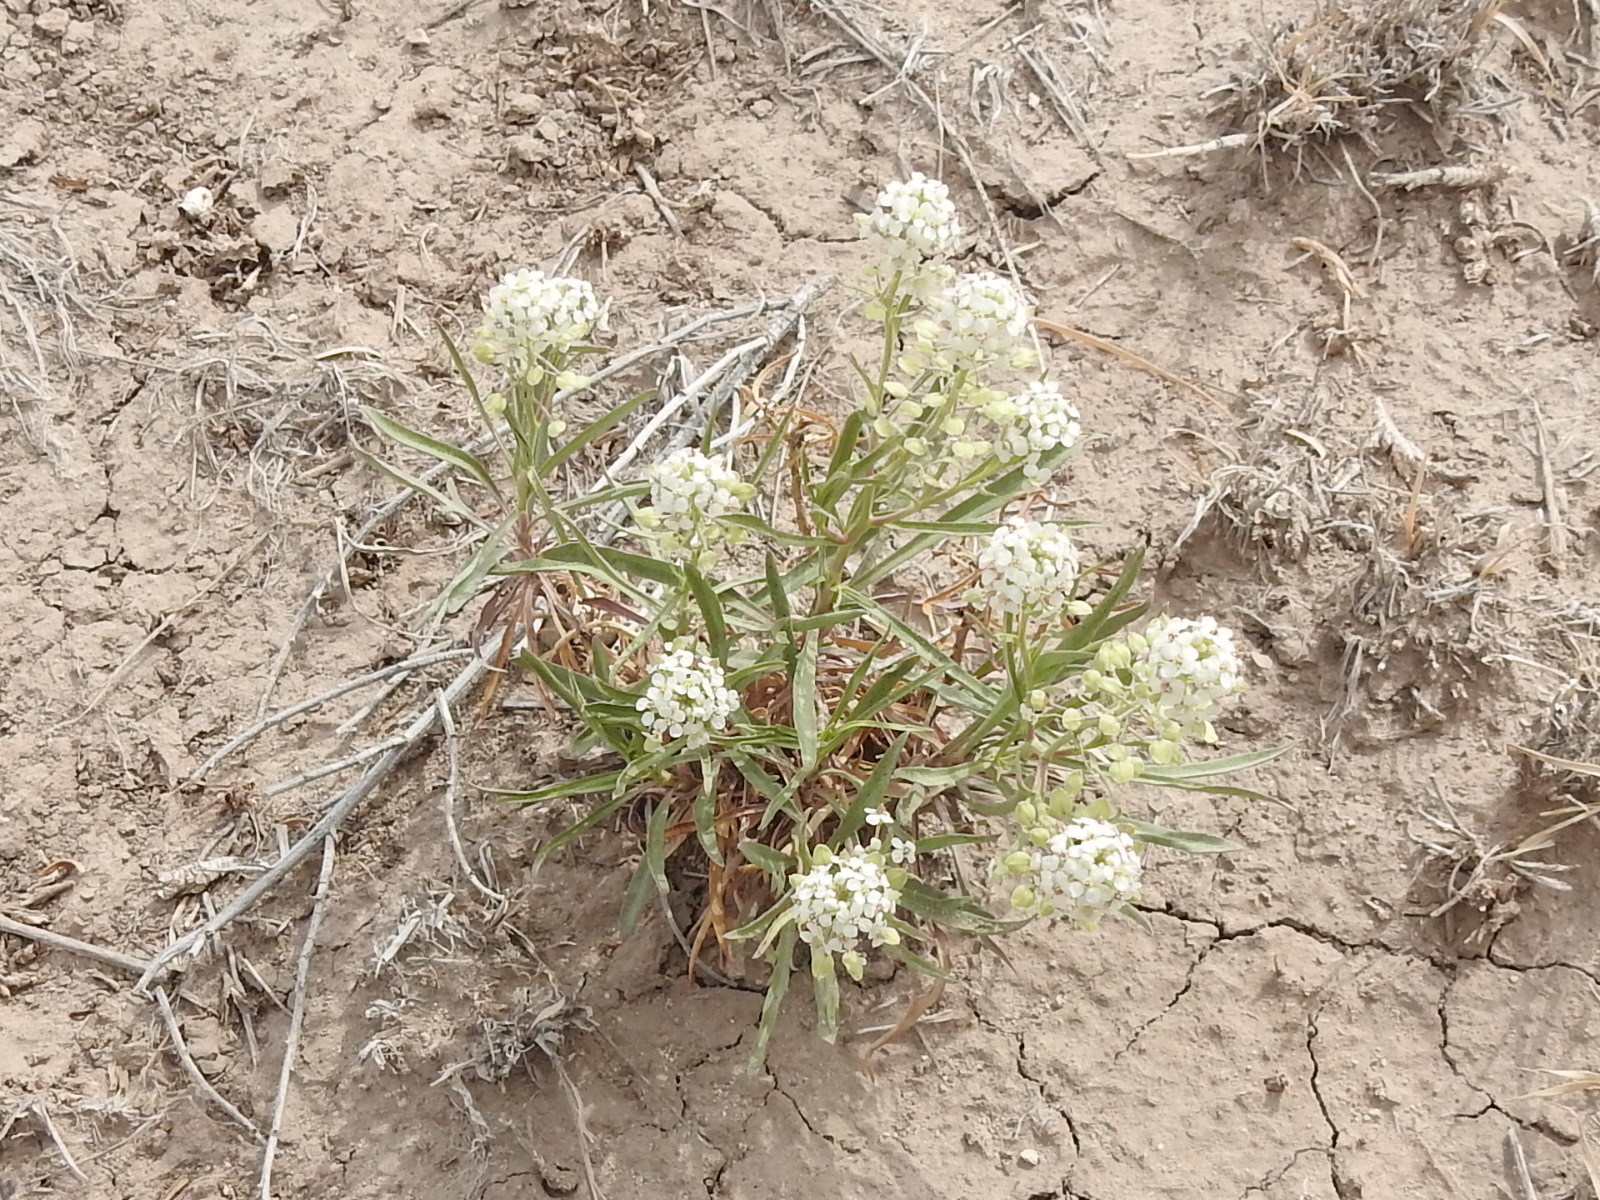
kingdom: Plantae
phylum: Tracheophyta
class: Magnoliopsida
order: Brassicales
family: Brassicaceae
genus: Lepidium
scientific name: Lepidium alyssoides
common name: Mesa pepperweed
